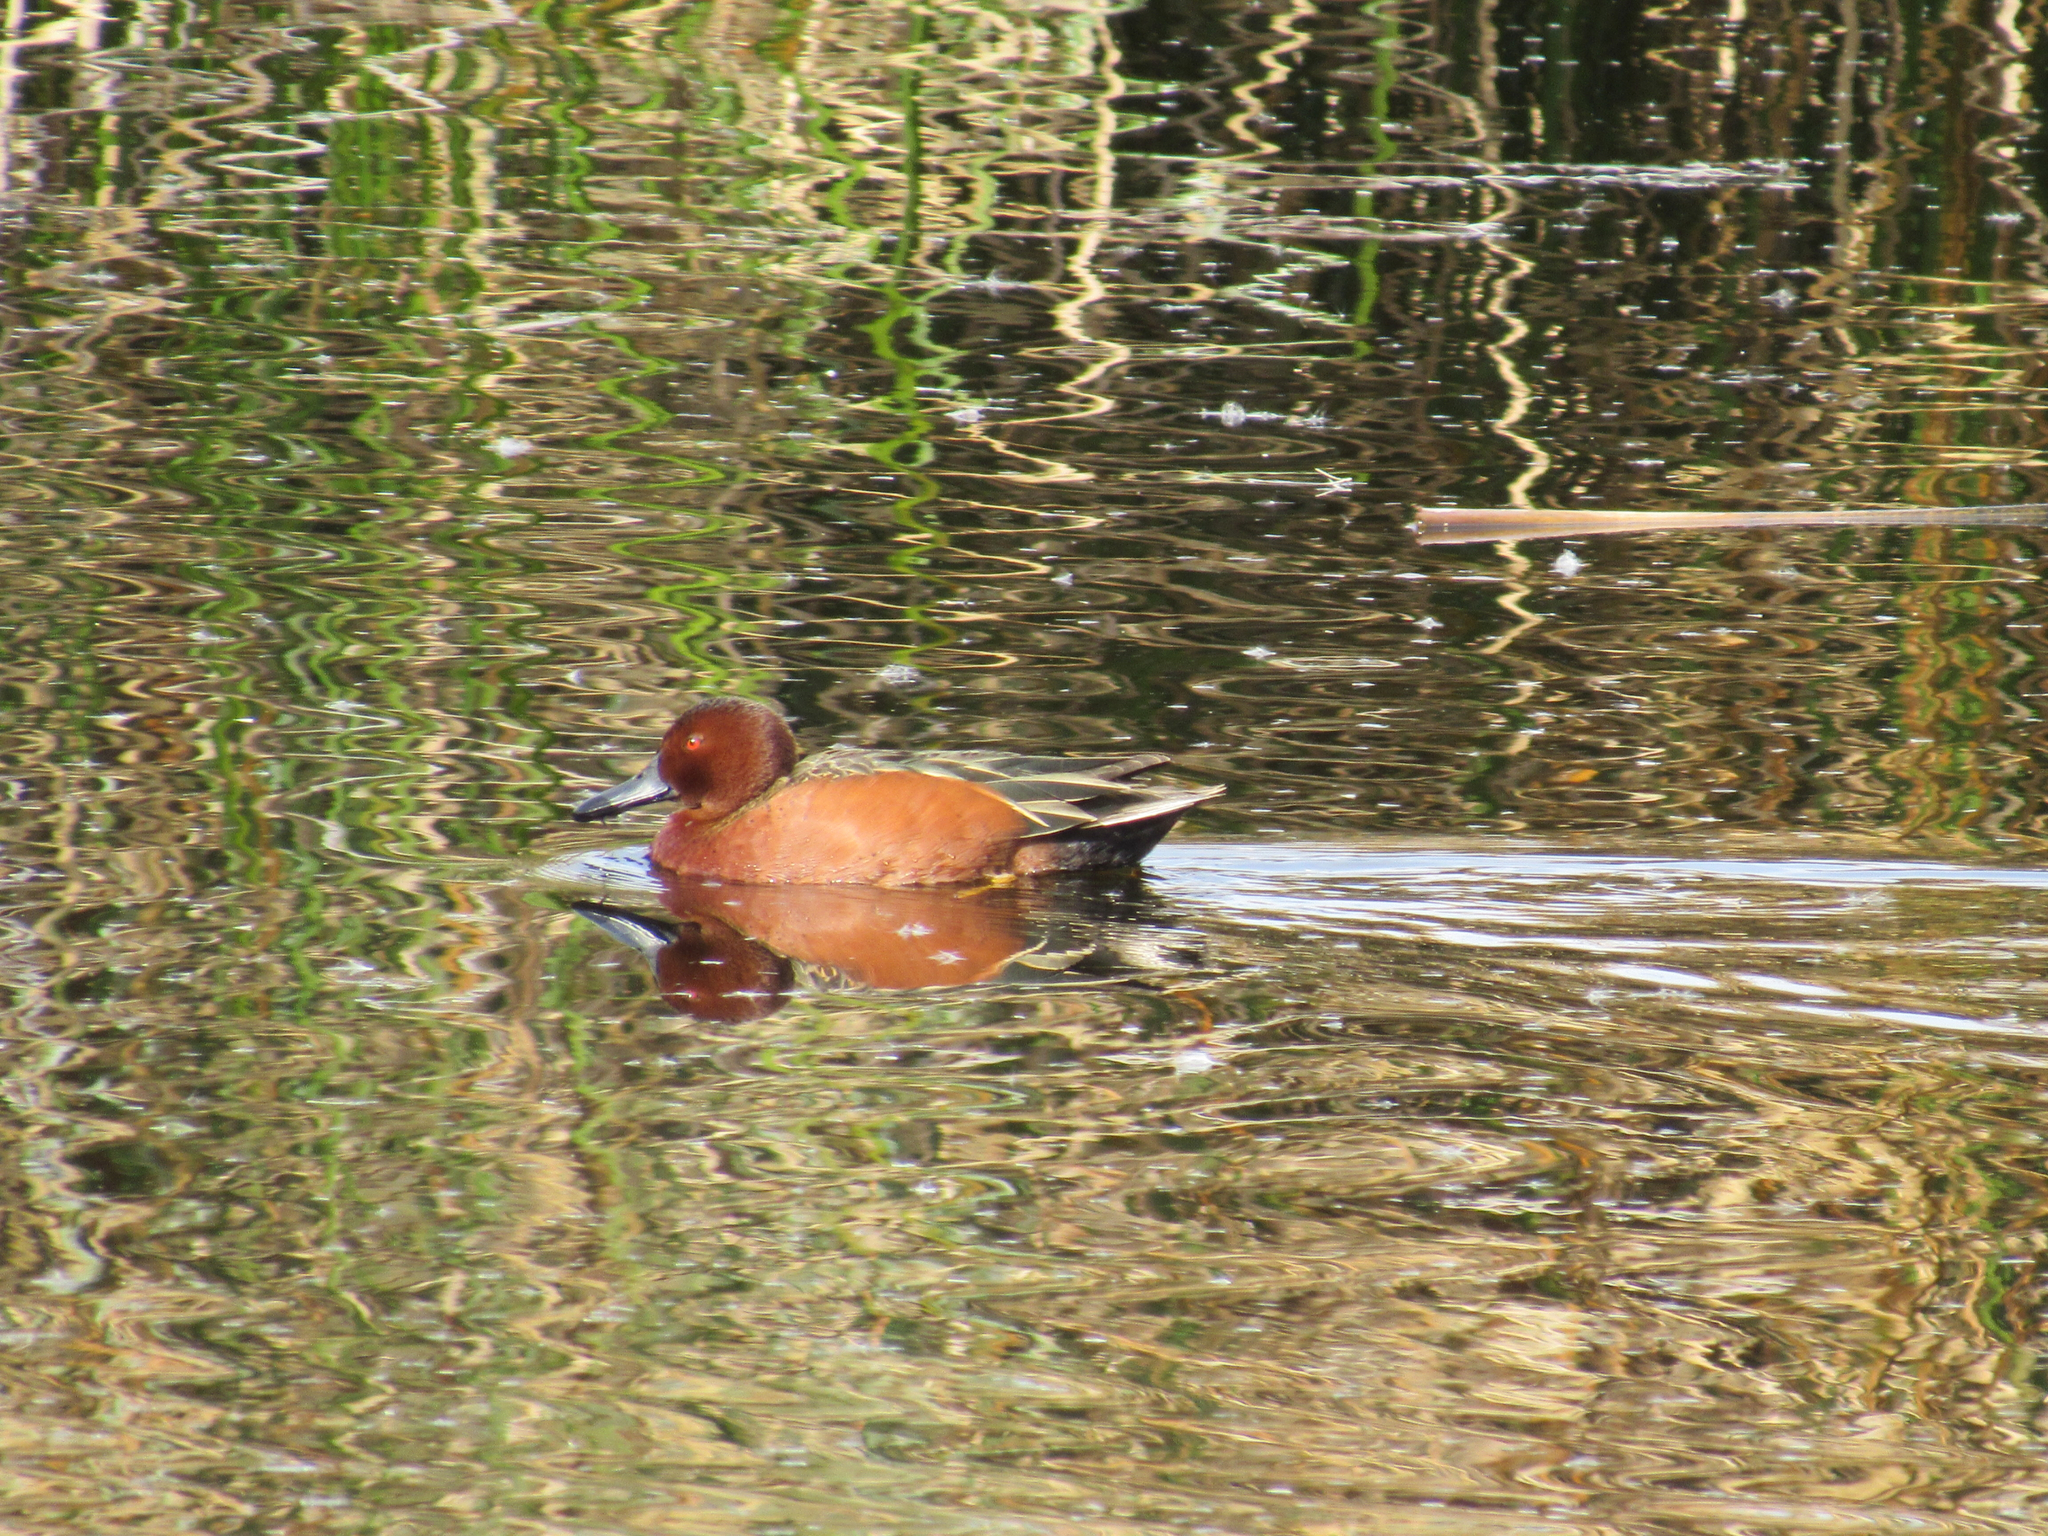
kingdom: Animalia
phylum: Chordata
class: Aves
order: Anseriformes
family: Anatidae
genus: Spatula
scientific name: Spatula cyanoptera
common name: Cinnamon teal
